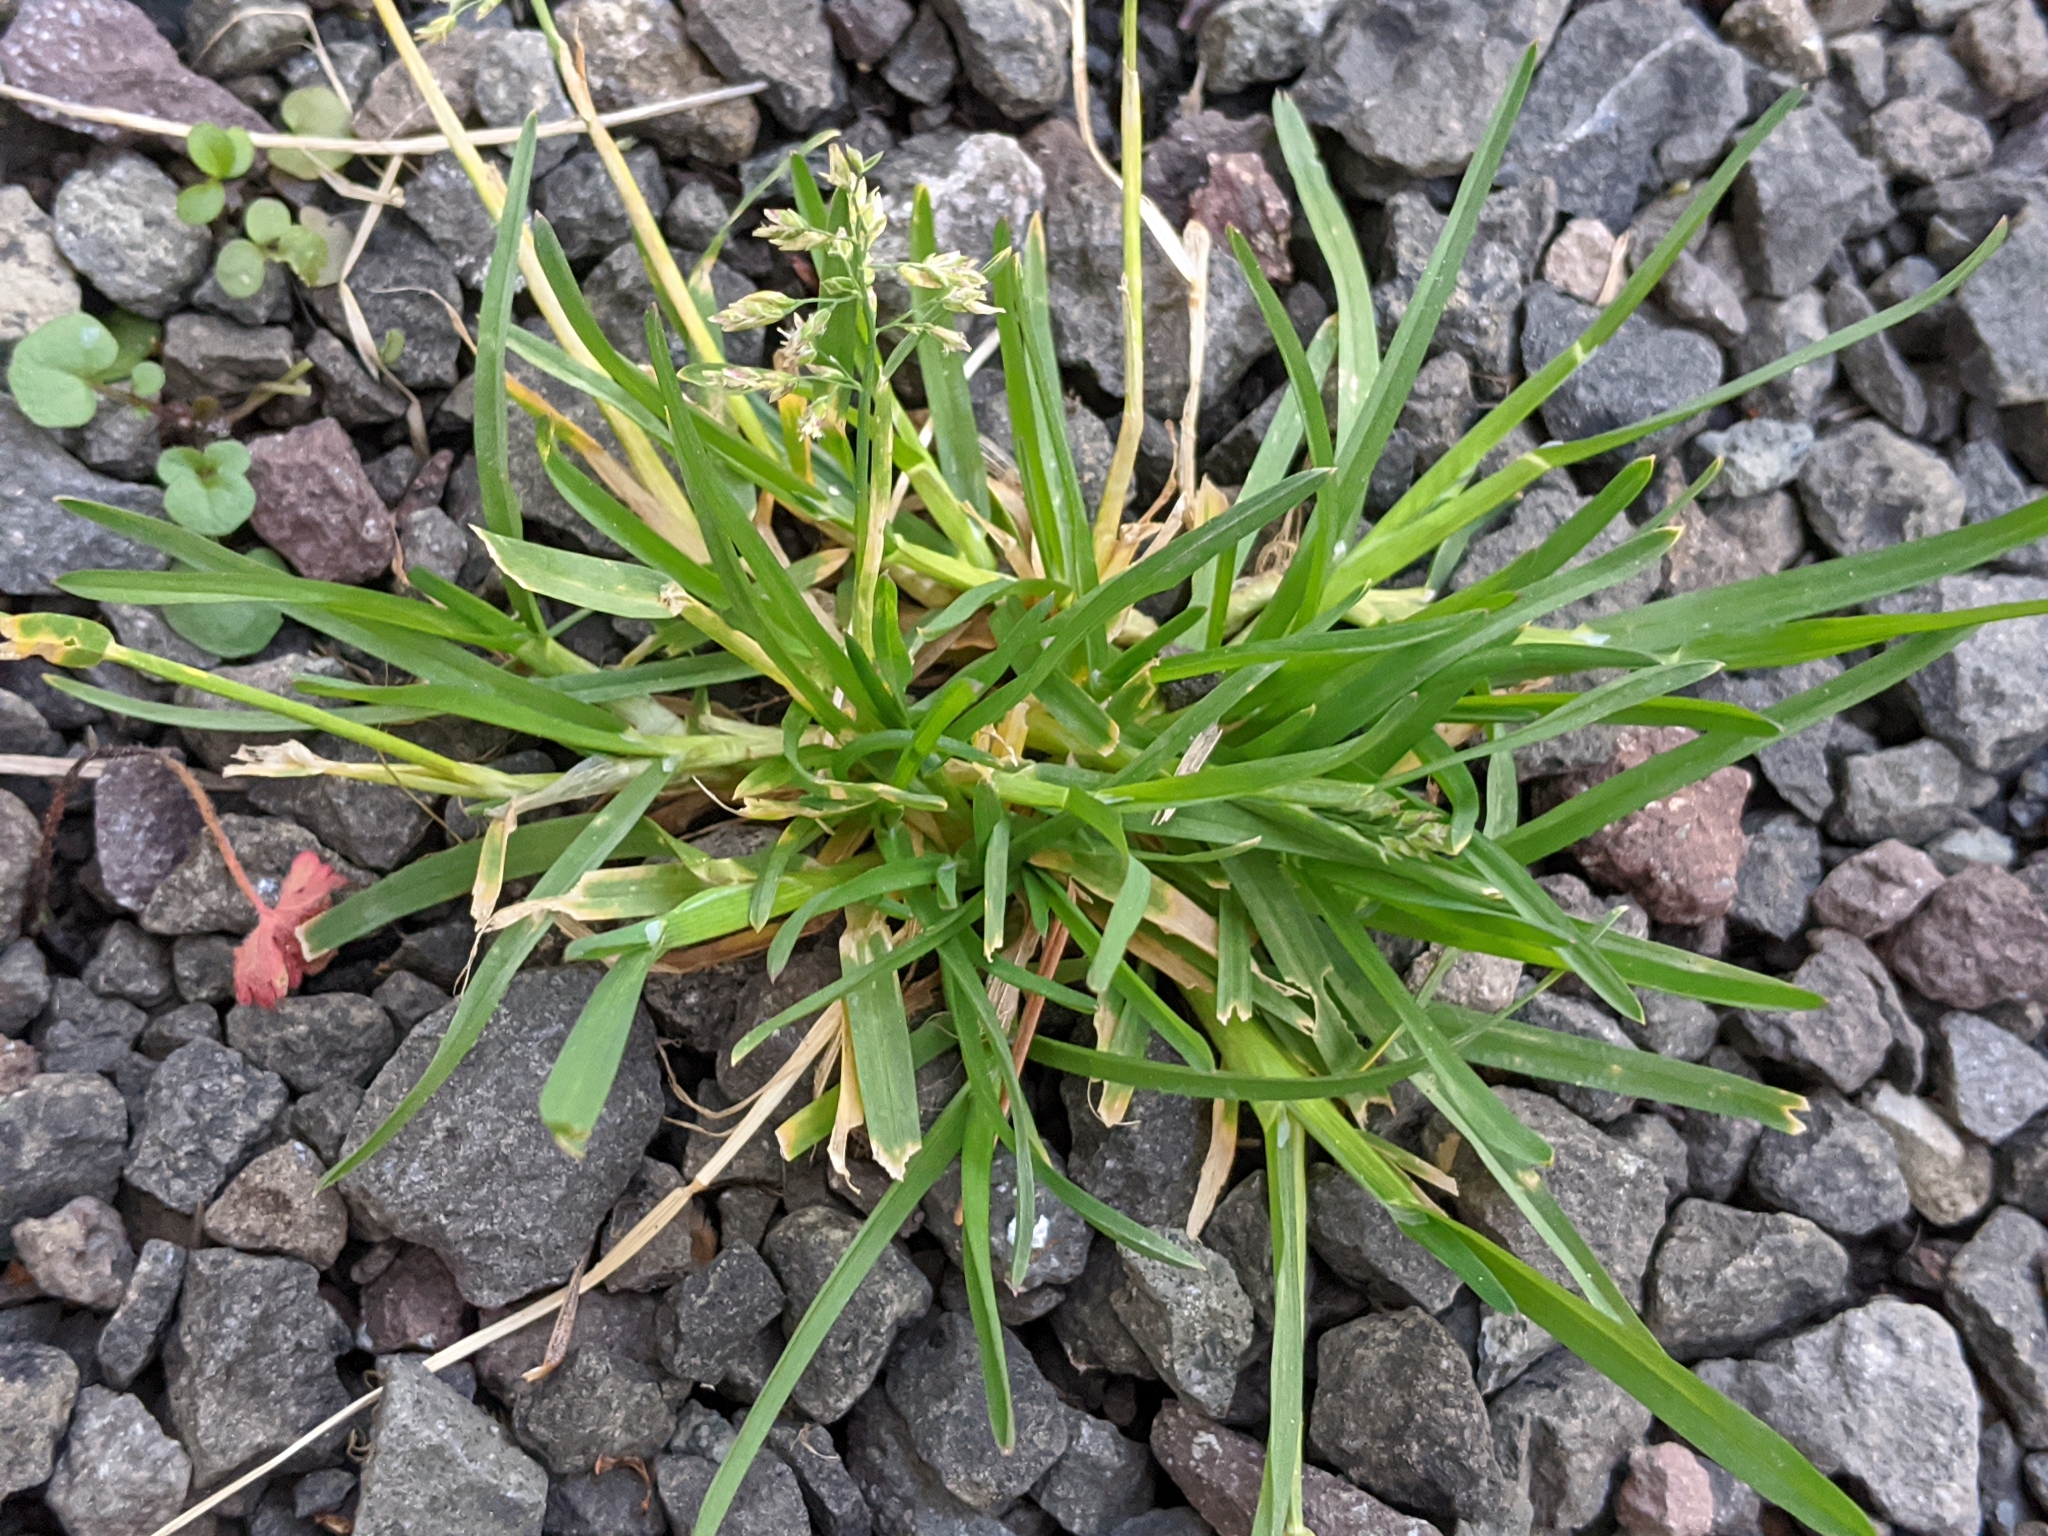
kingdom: Plantae
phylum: Tracheophyta
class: Liliopsida
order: Poales
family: Poaceae
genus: Poa
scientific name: Poa annua
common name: Annual bluegrass
